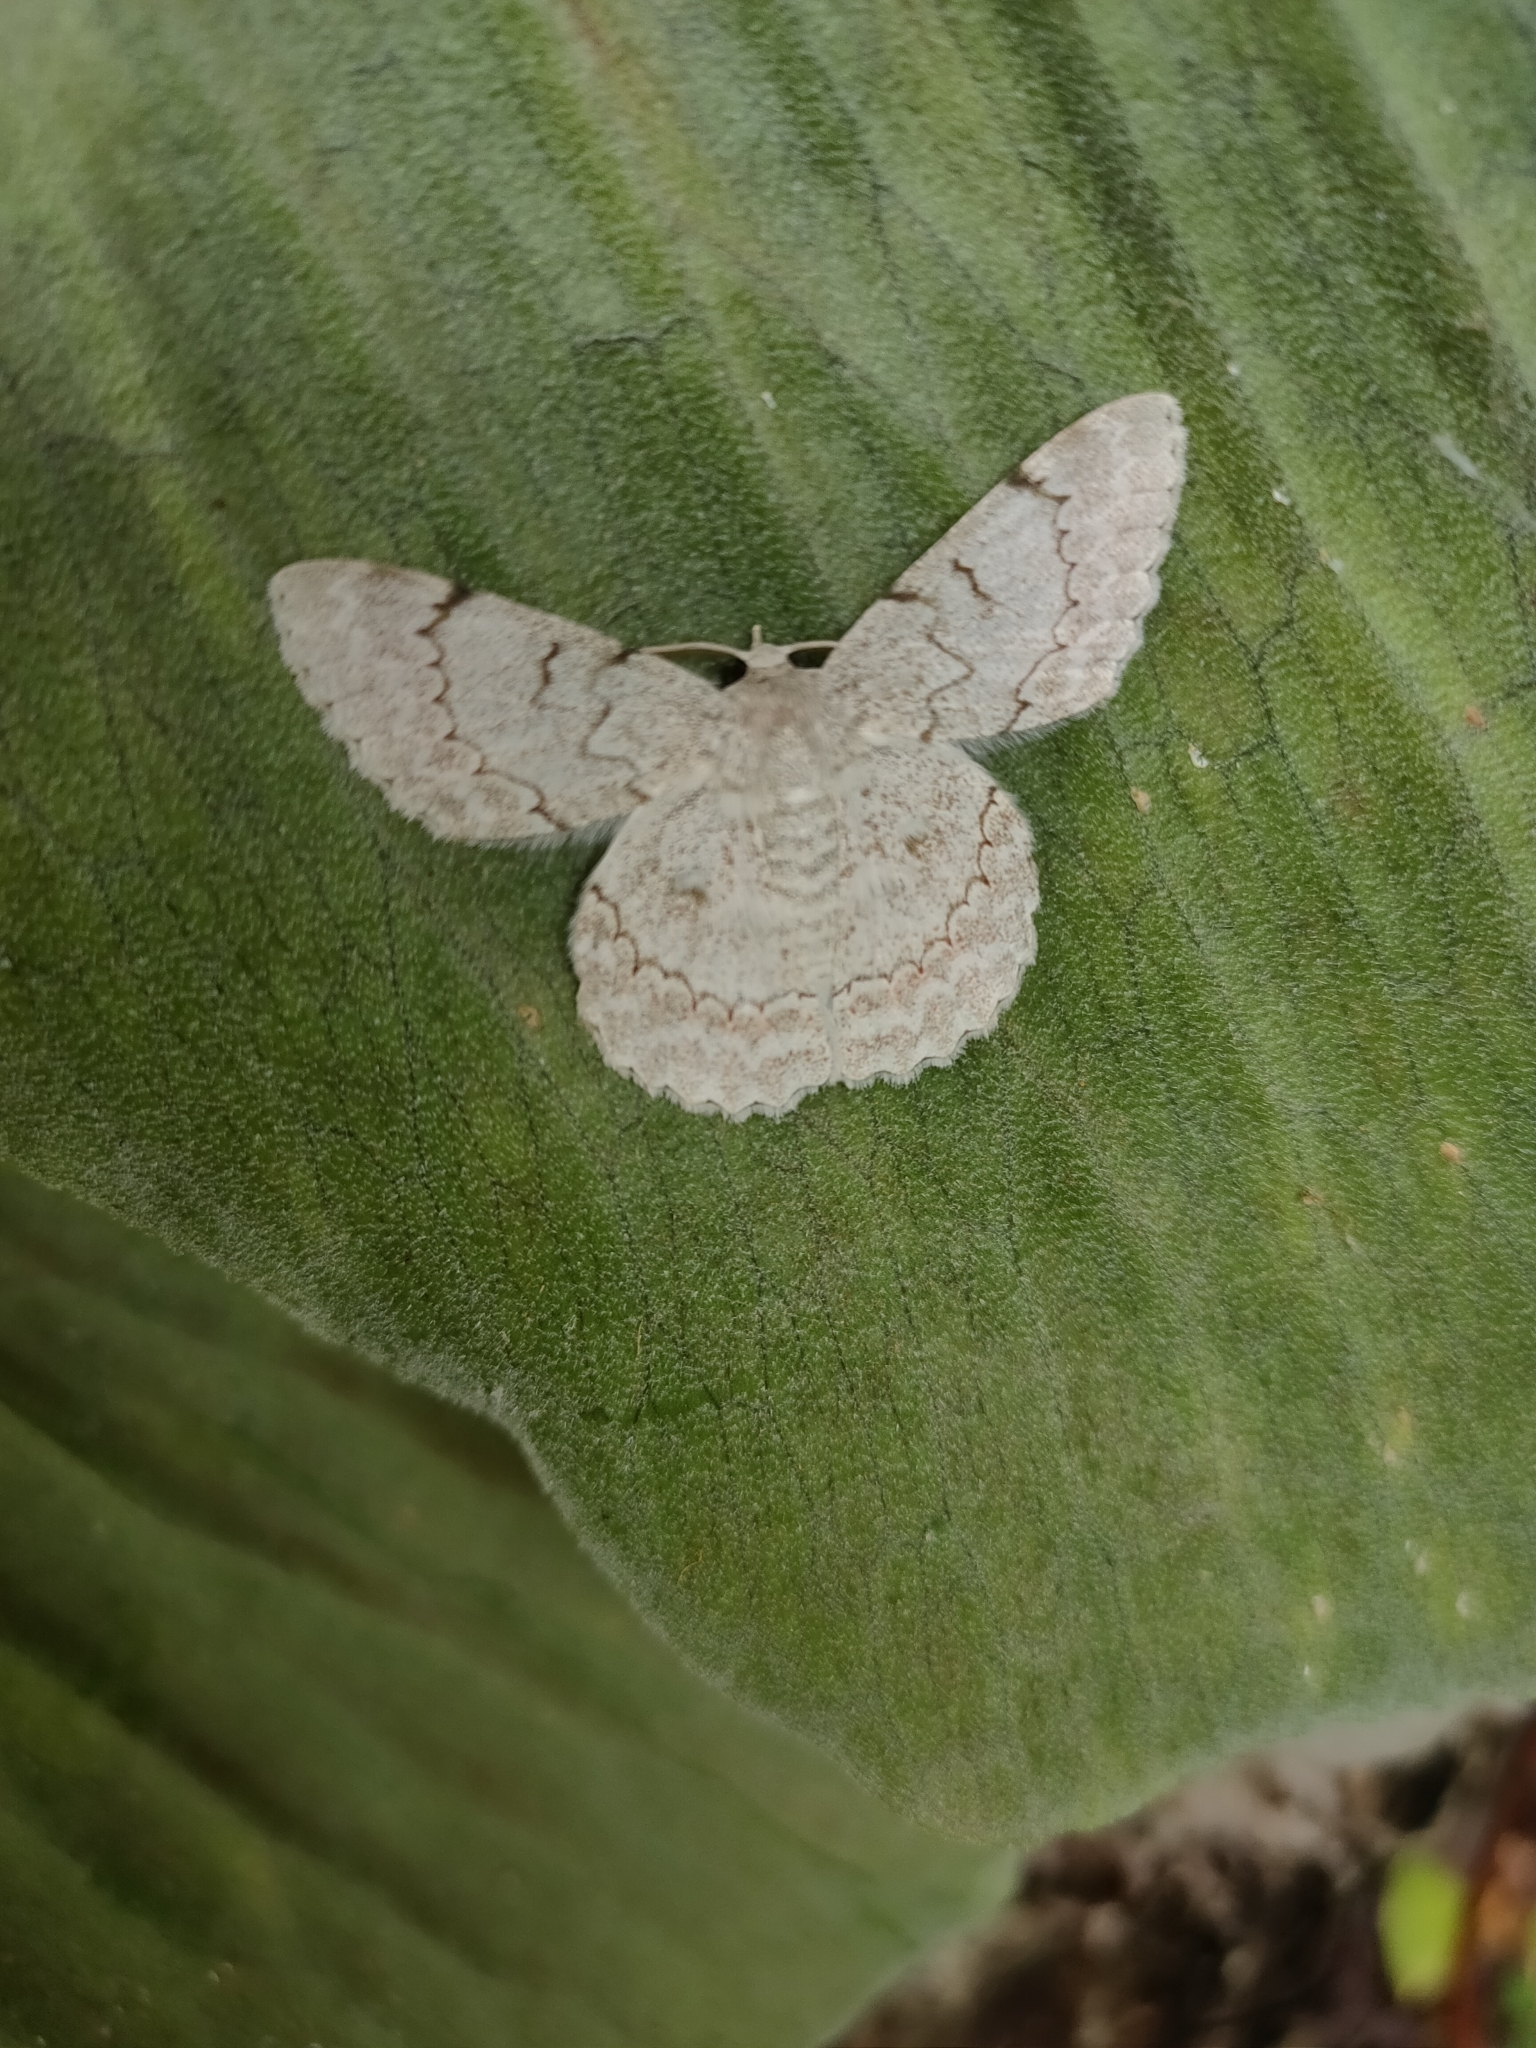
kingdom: Animalia
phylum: Arthropoda
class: Insecta
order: Lepidoptera
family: Geometridae
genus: Pingasa
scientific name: Pingasa chlora
